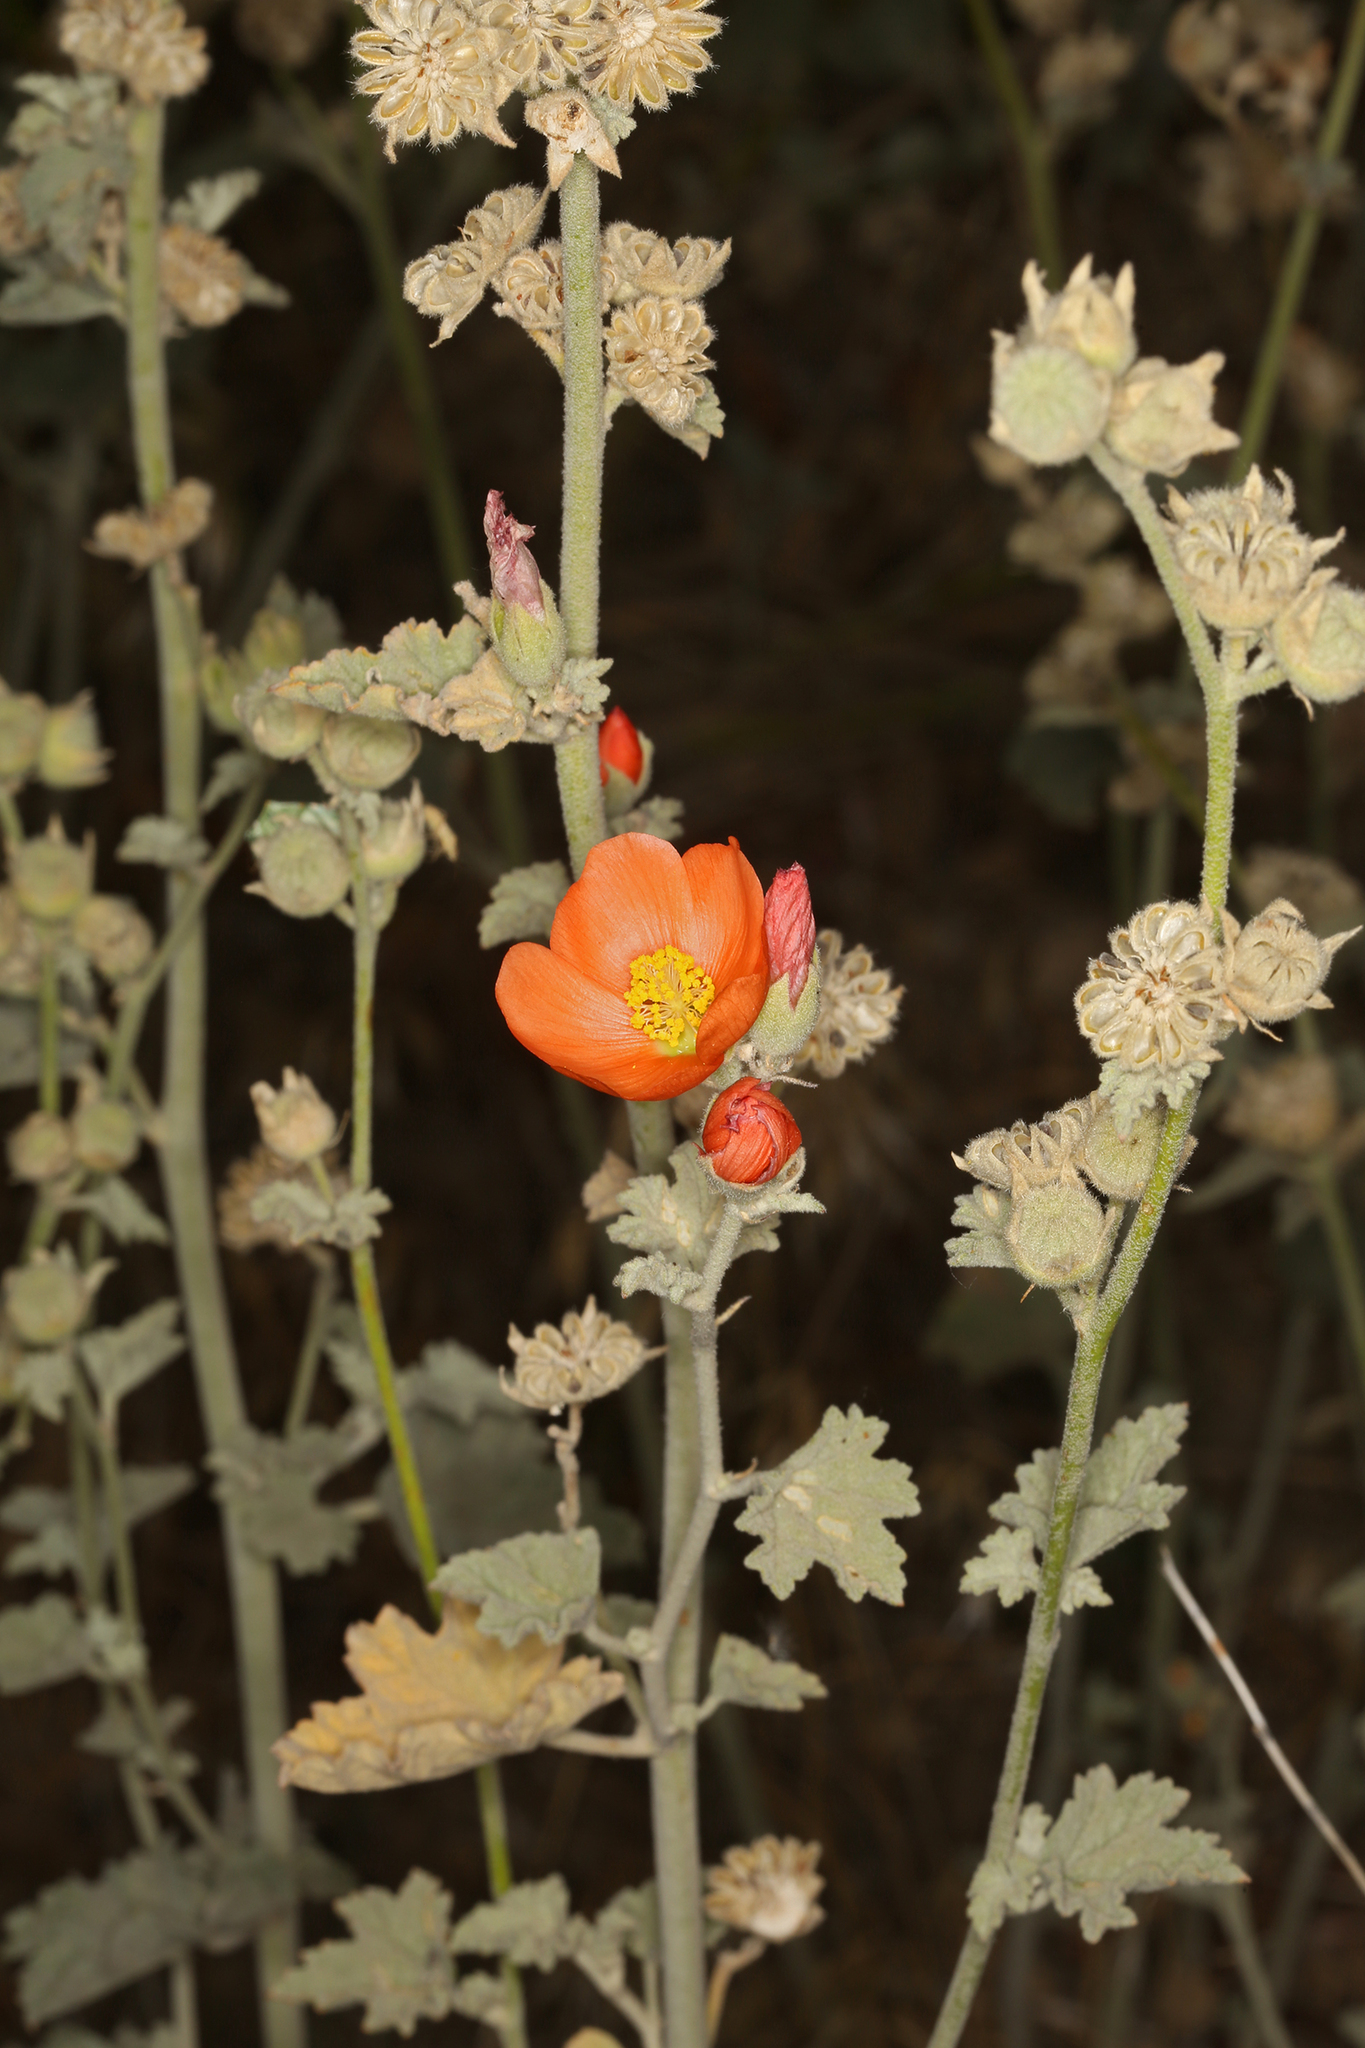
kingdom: Plantae
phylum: Tracheophyta
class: Magnoliopsida
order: Malvales
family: Malvaceae
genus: Sphaeralcea
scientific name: Sphaeralcea ambigua
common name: Apricot globe-mallow
